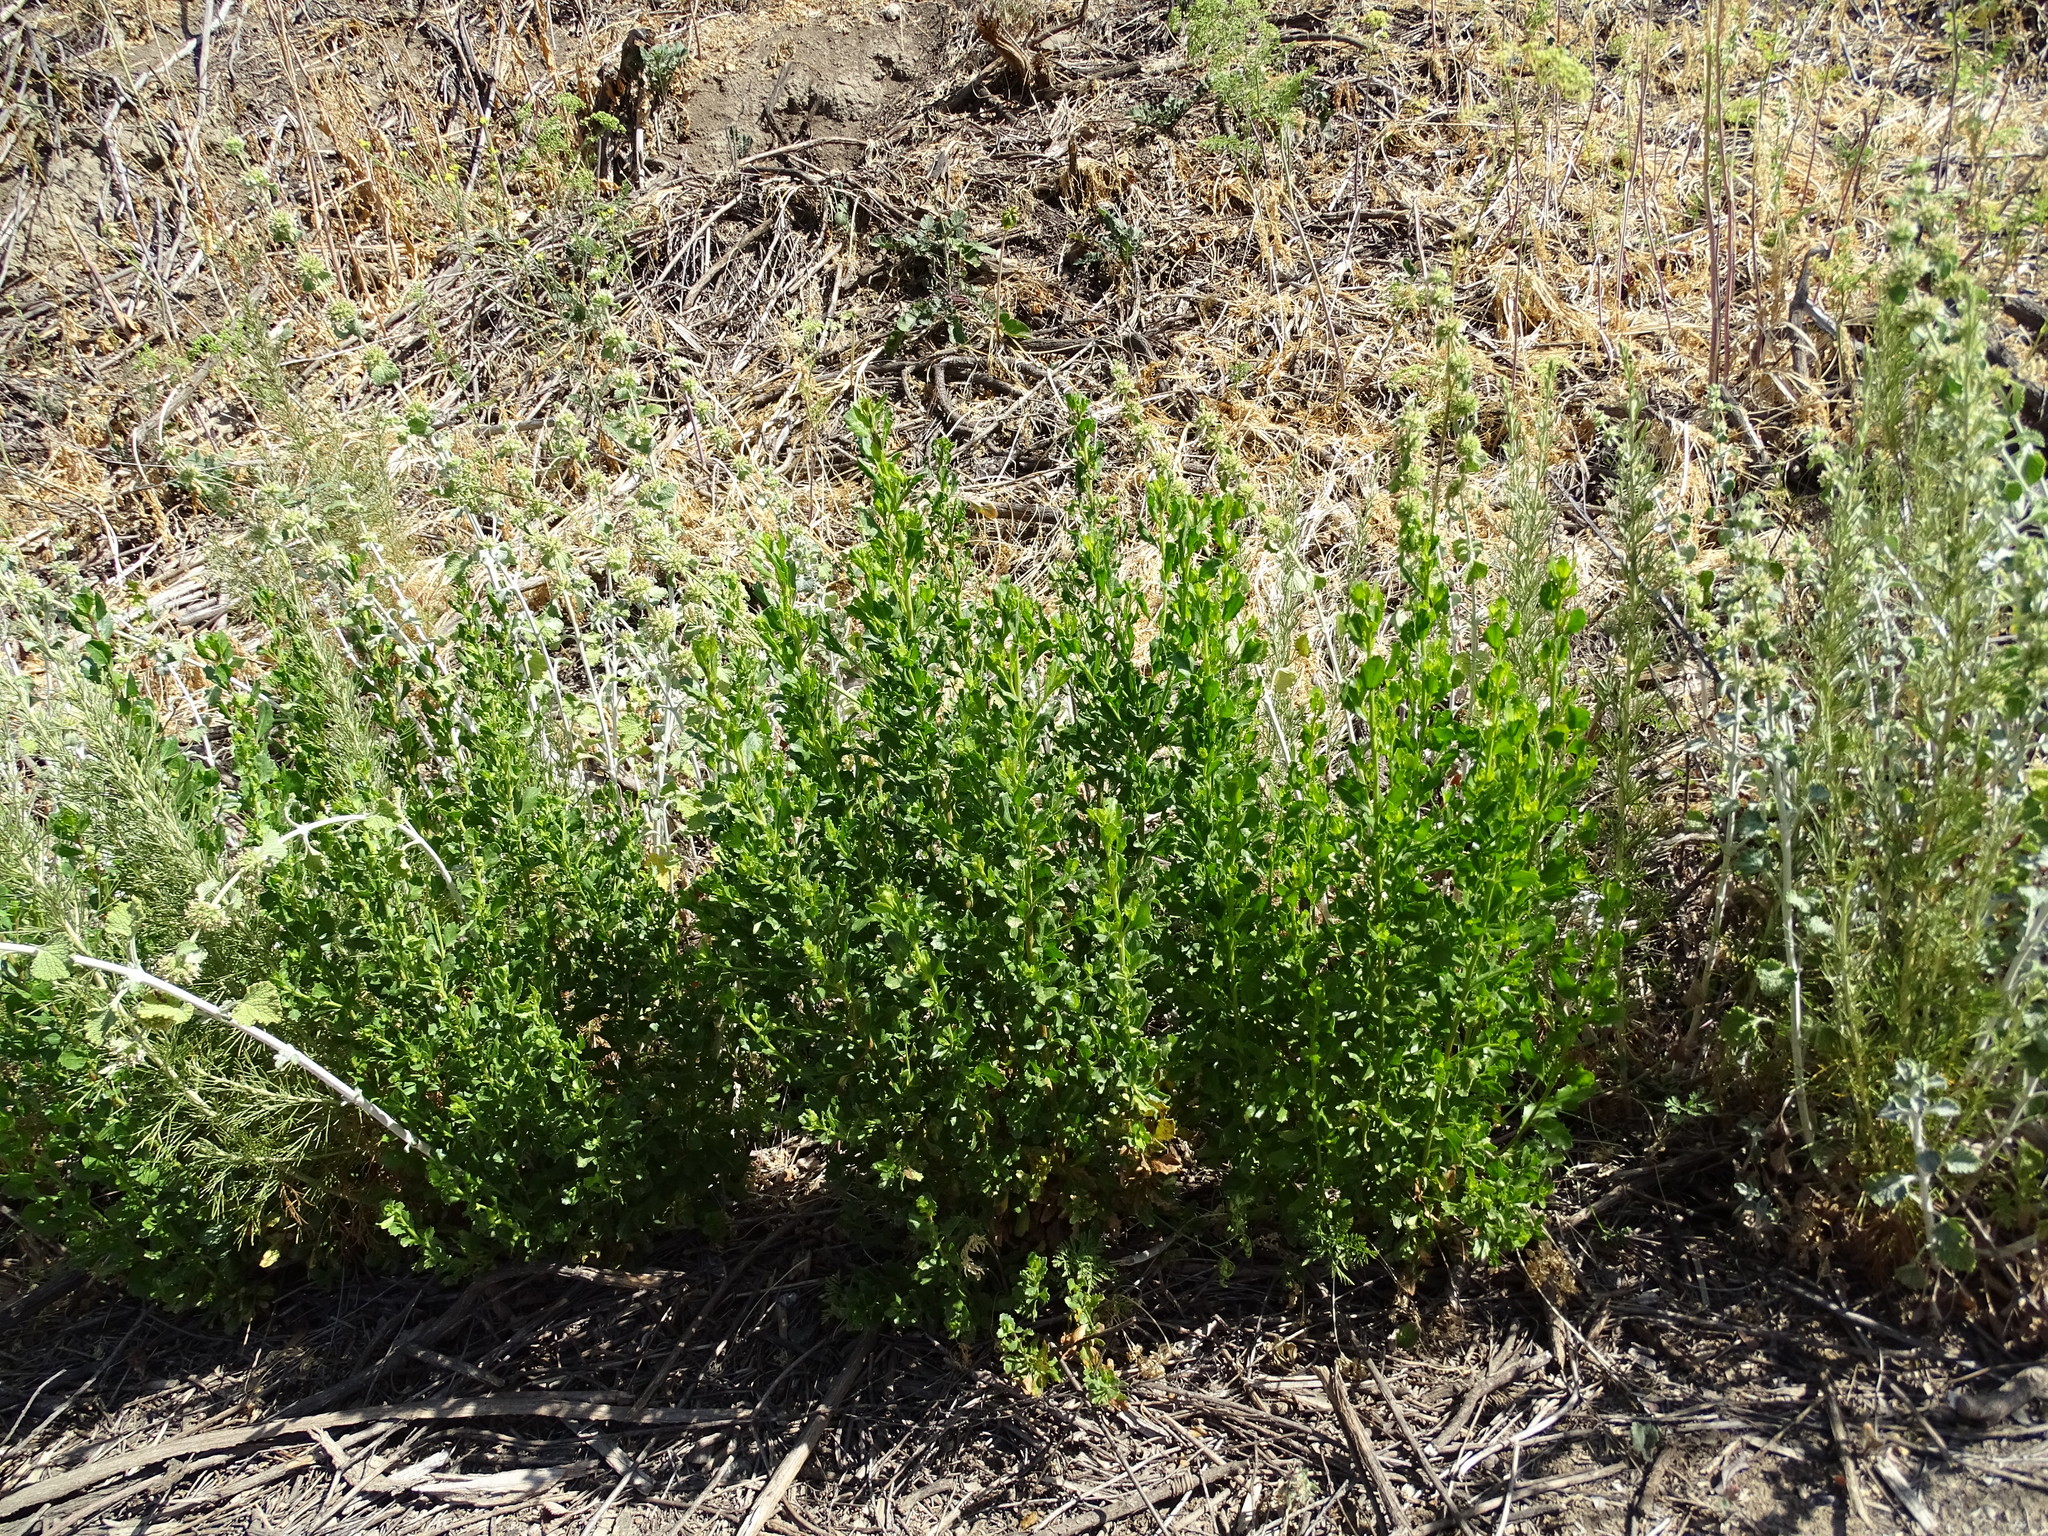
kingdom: Plantae
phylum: Tracheophyta
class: Magnoliopsida
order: Asterales
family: Asteraceae
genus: Baccharis
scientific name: Baccharis pilularis
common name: Coyotebrush
